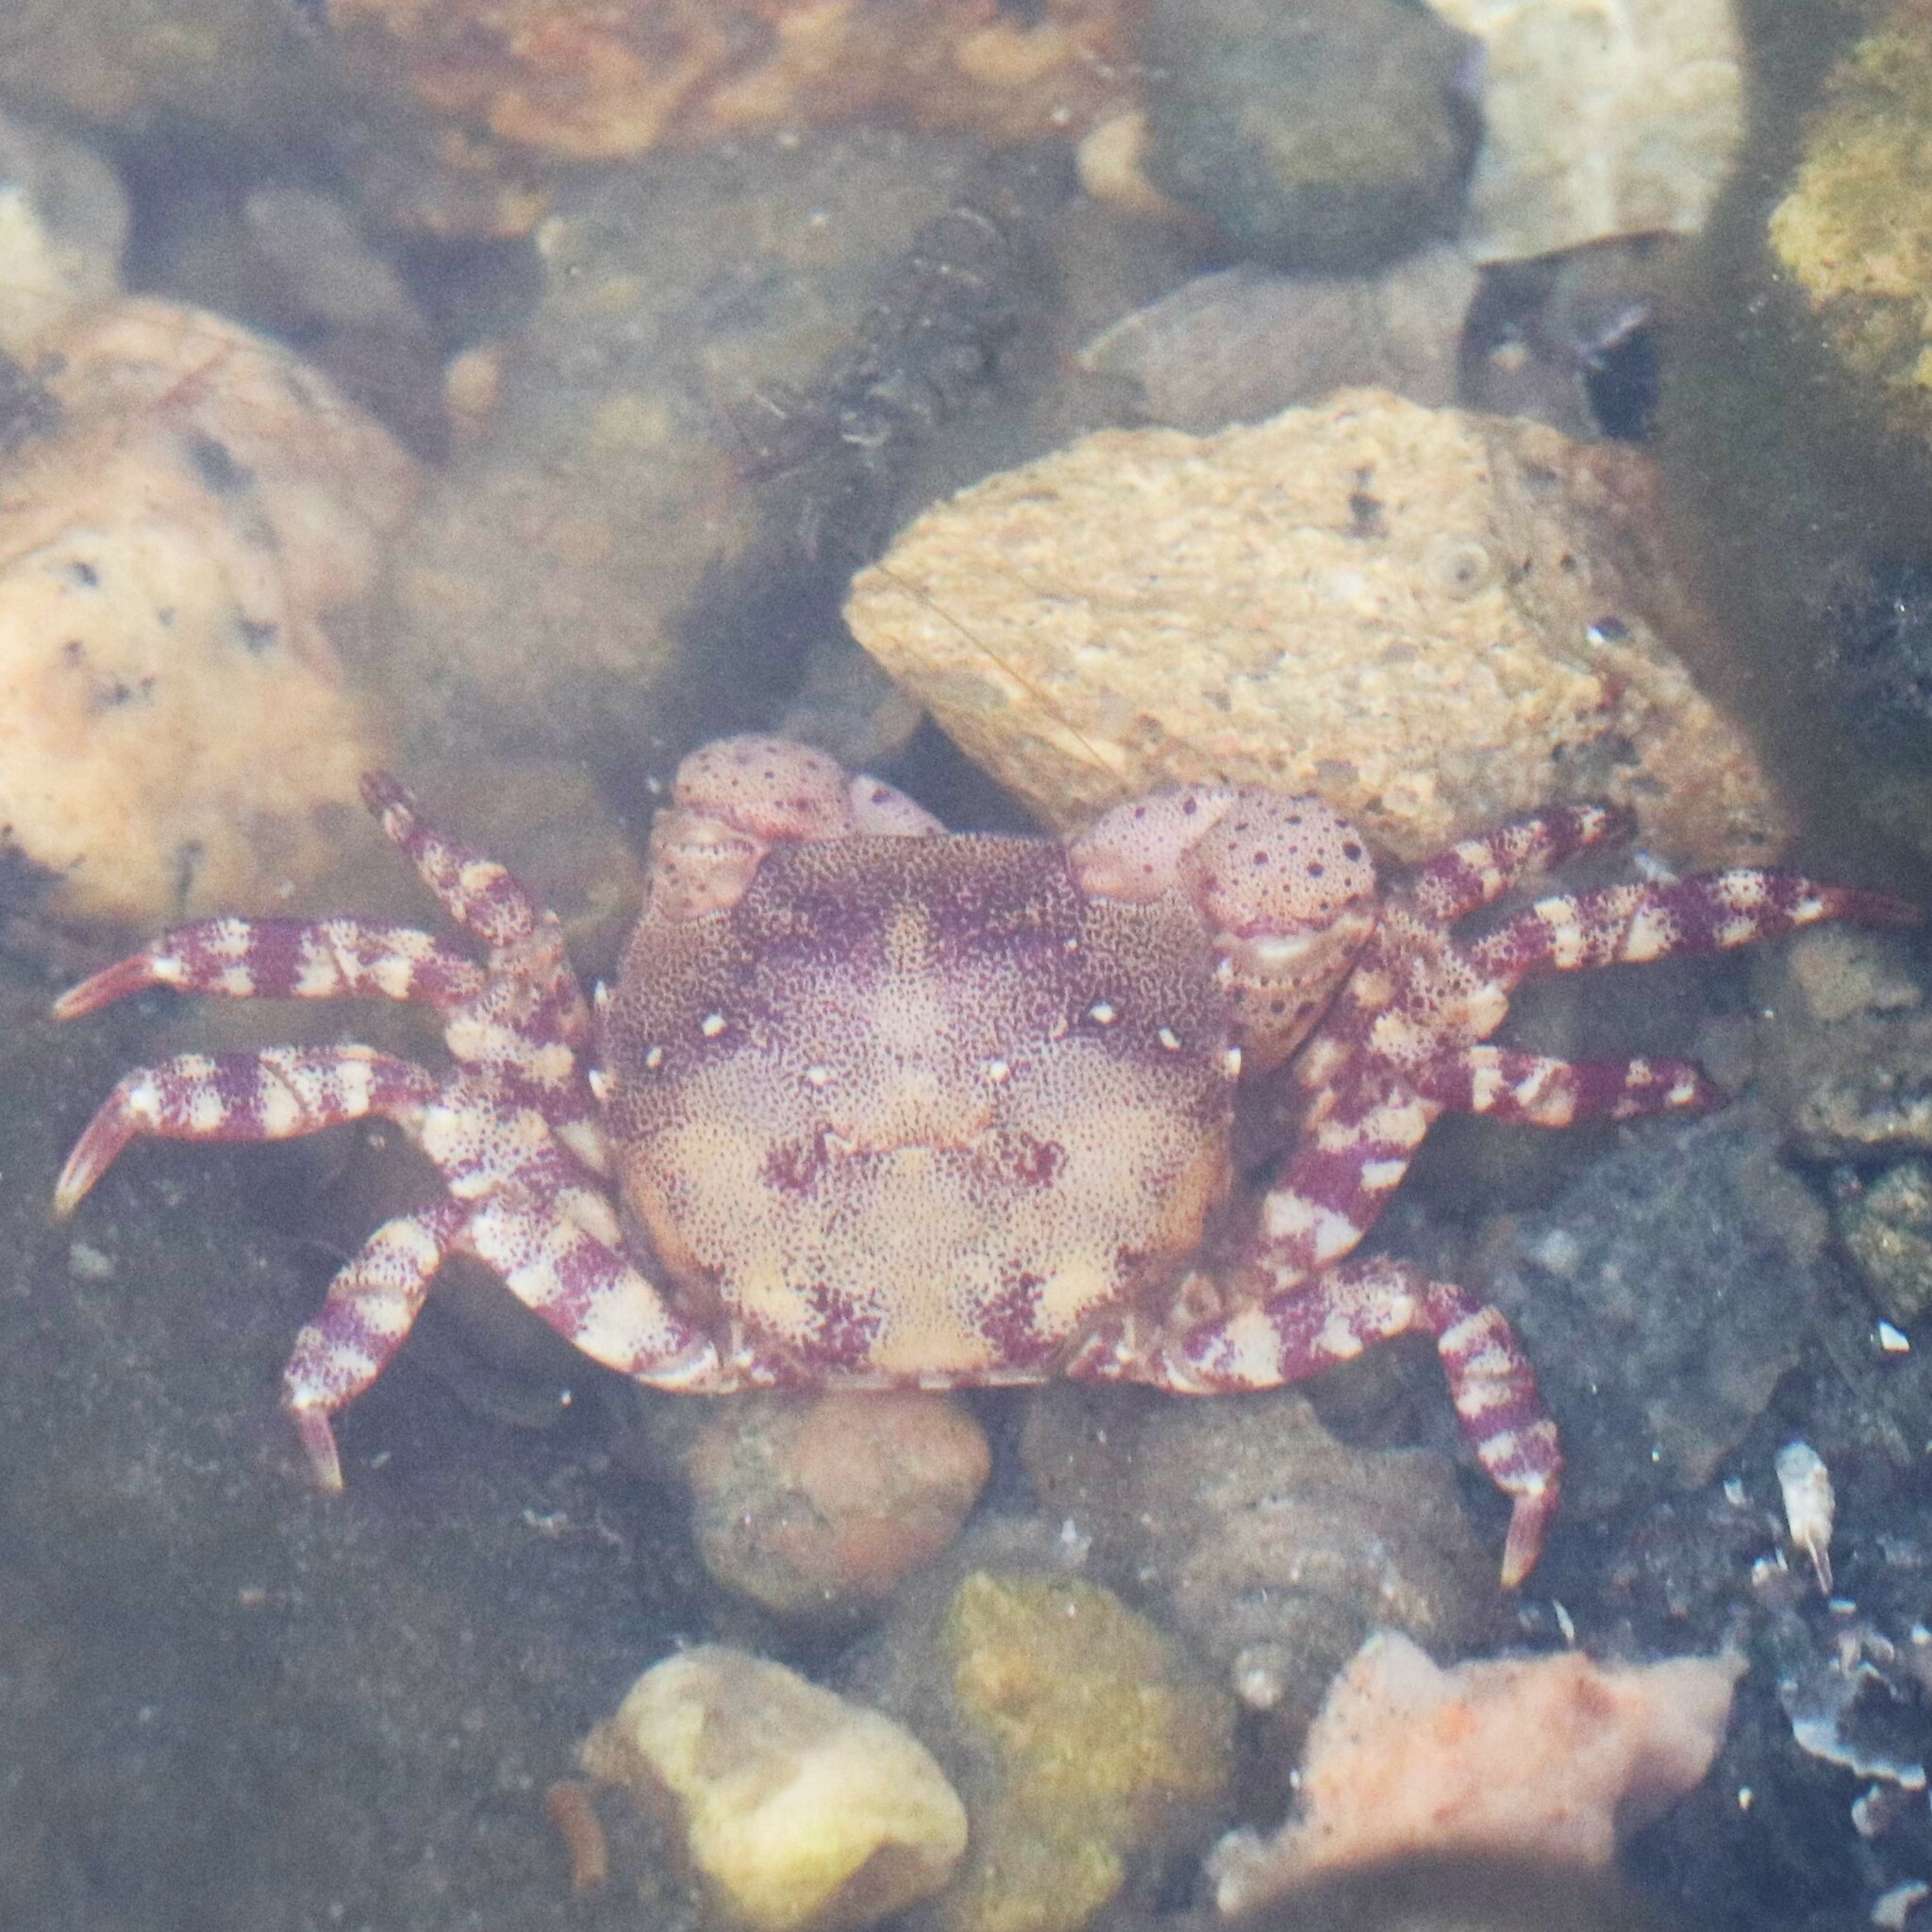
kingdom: Animalia
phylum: Arthropoda
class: Malacostraca
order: Decapoda
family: Varunidae
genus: Hemigrapsus
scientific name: Hemigrapsus sanguineus
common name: Asian shore crab
